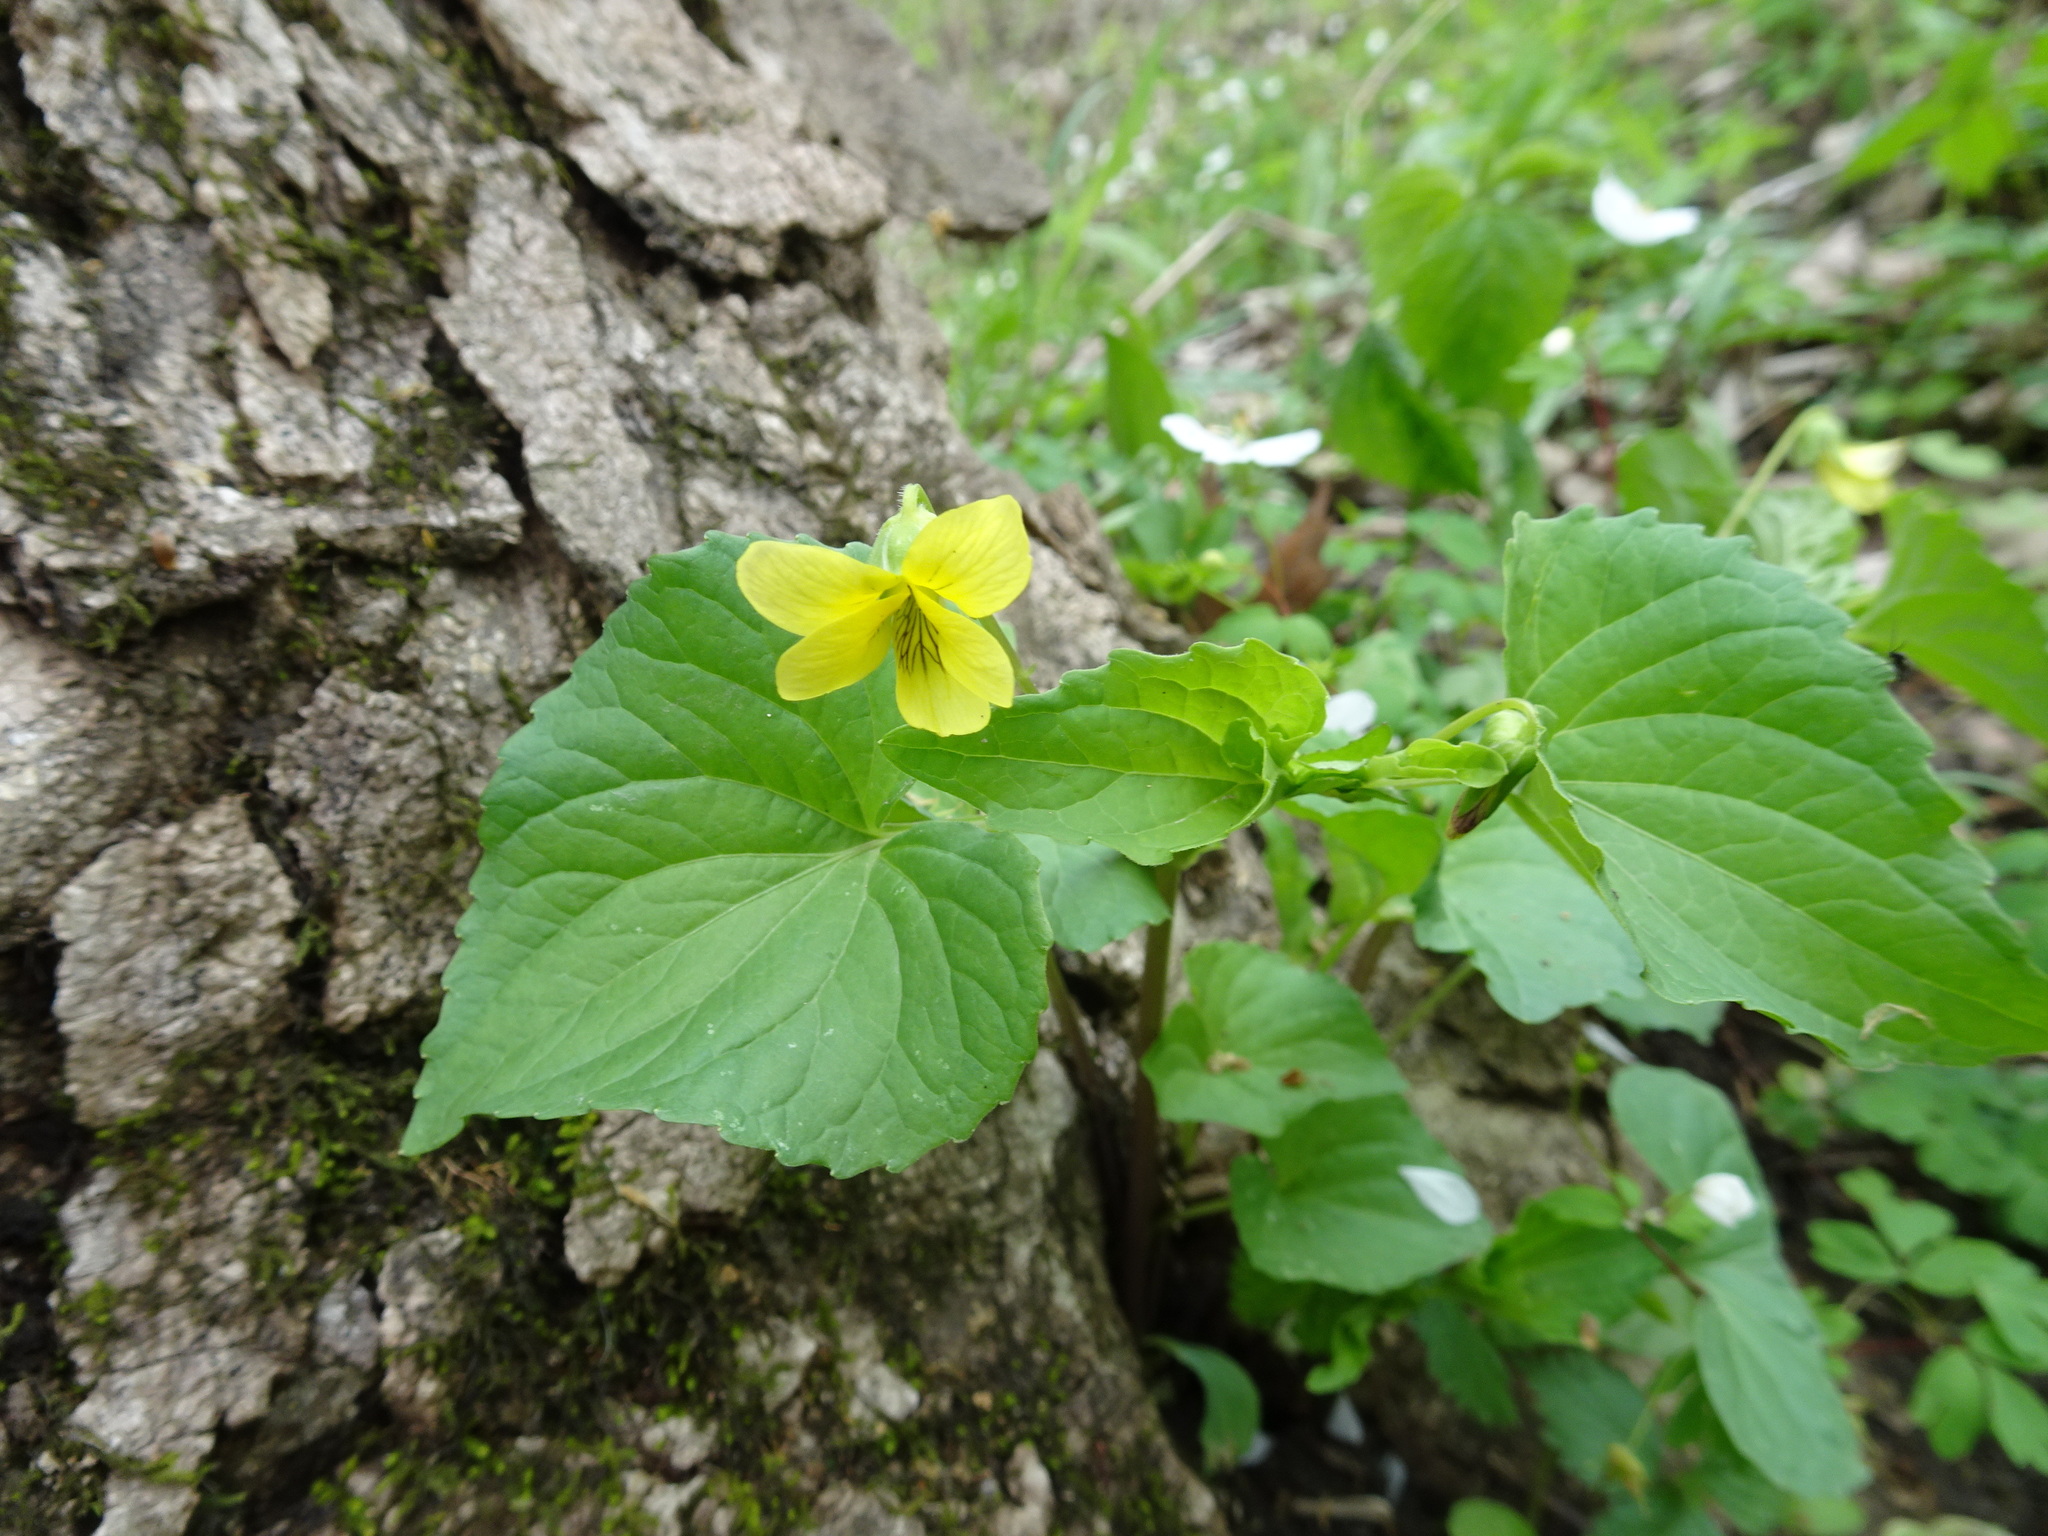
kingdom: Plantae
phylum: Tracheophyta
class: Magnoliopsida
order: Malpighiales
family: Violaceae
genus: Viola
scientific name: Viola eriocarpa
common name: Smooth yellow violet
